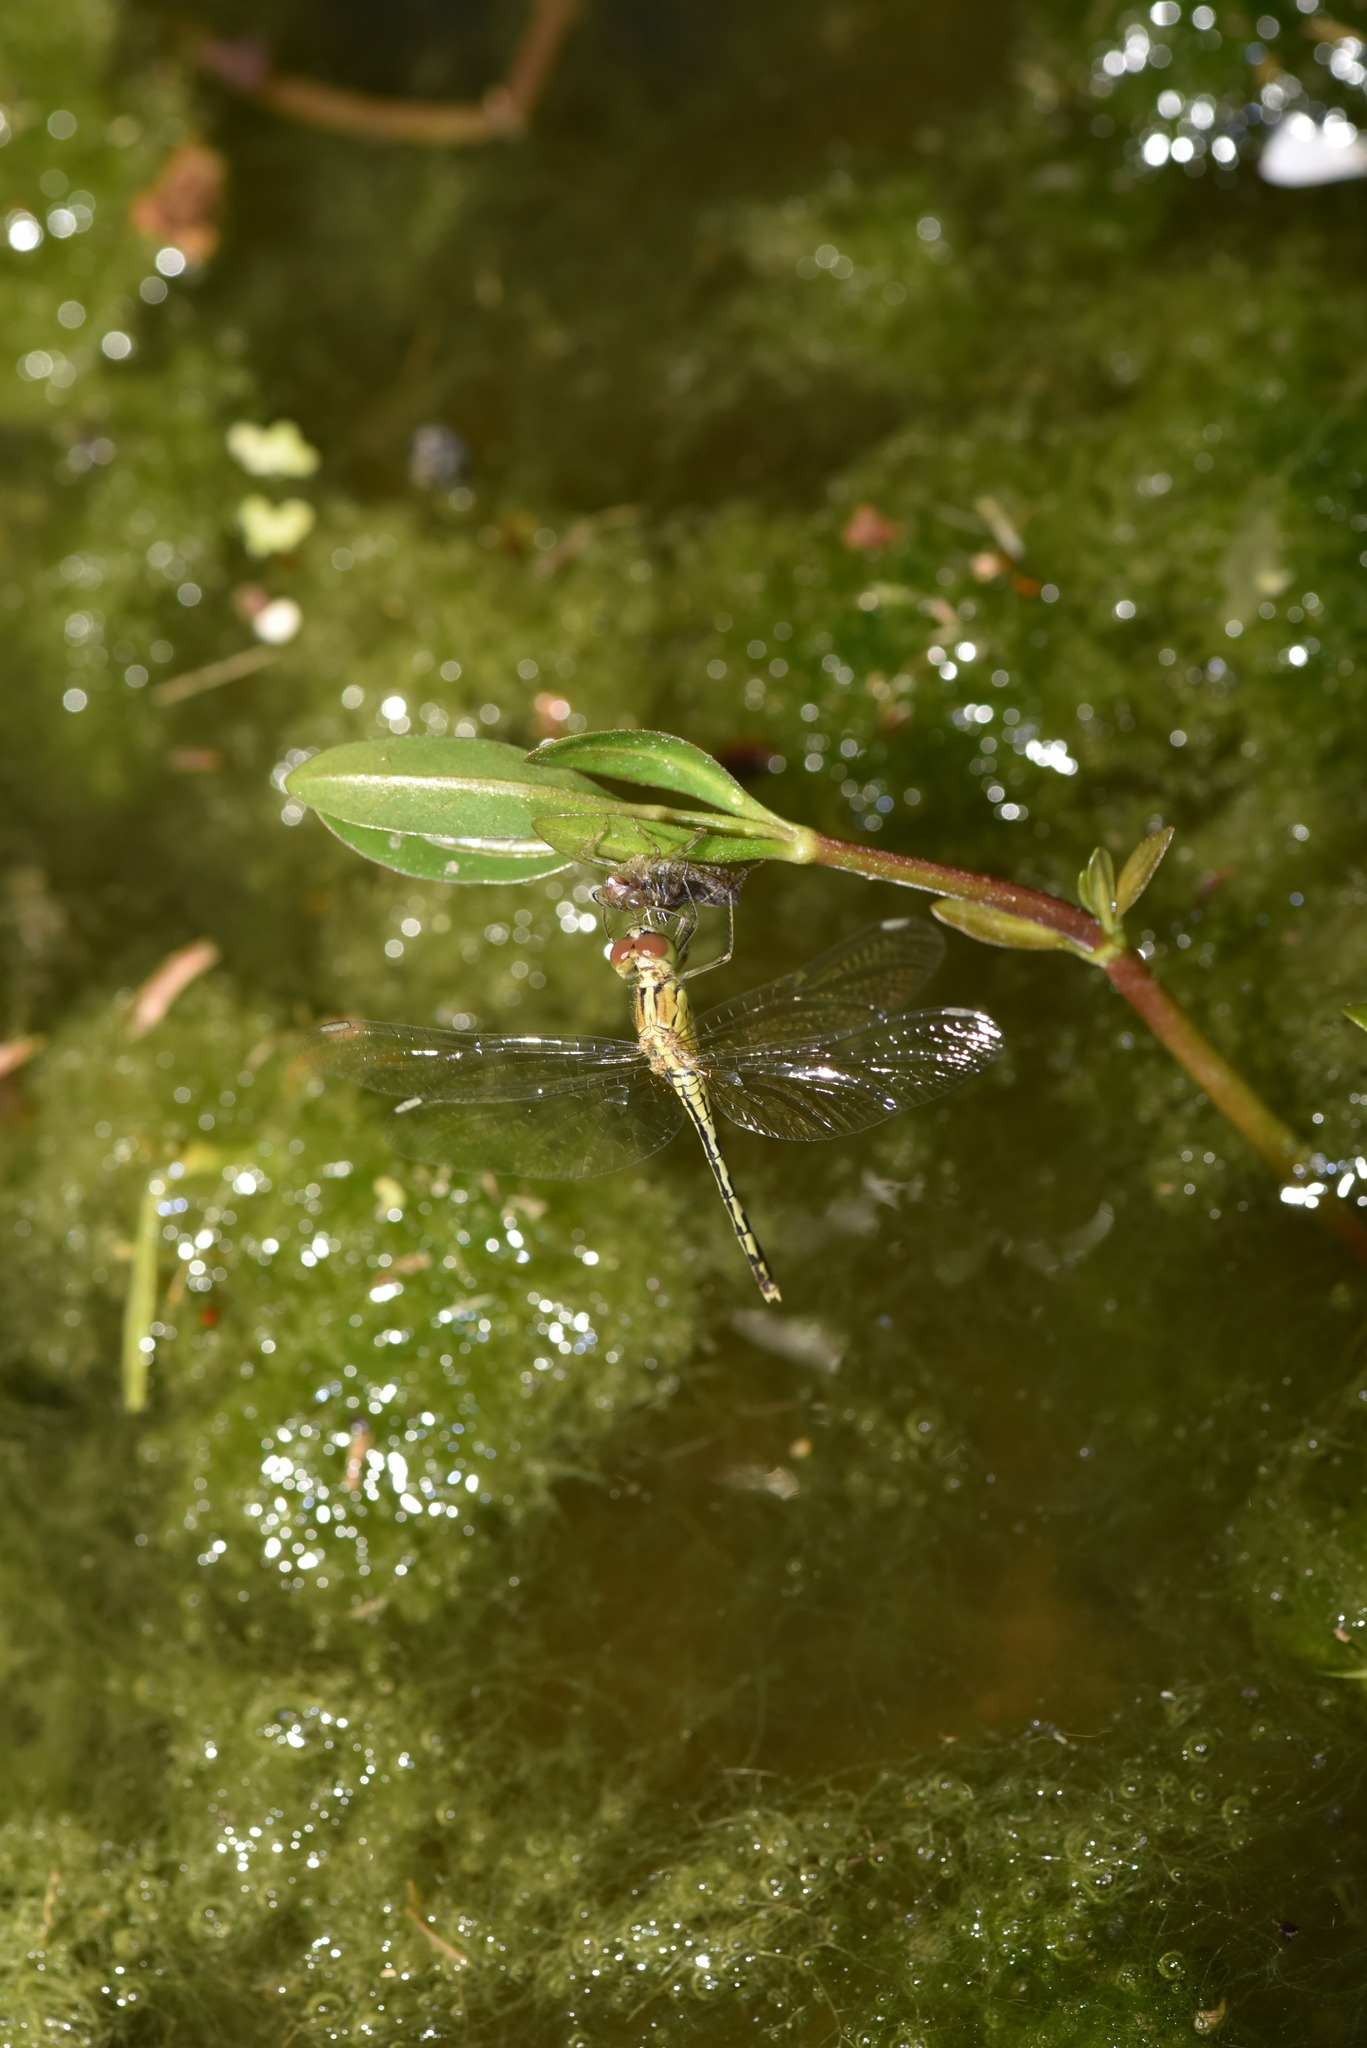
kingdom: Animalia
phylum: Arthropoda
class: Insecta
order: Odonata
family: Libellulidae
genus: Diplacodes
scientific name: Diplacodes trivialis
